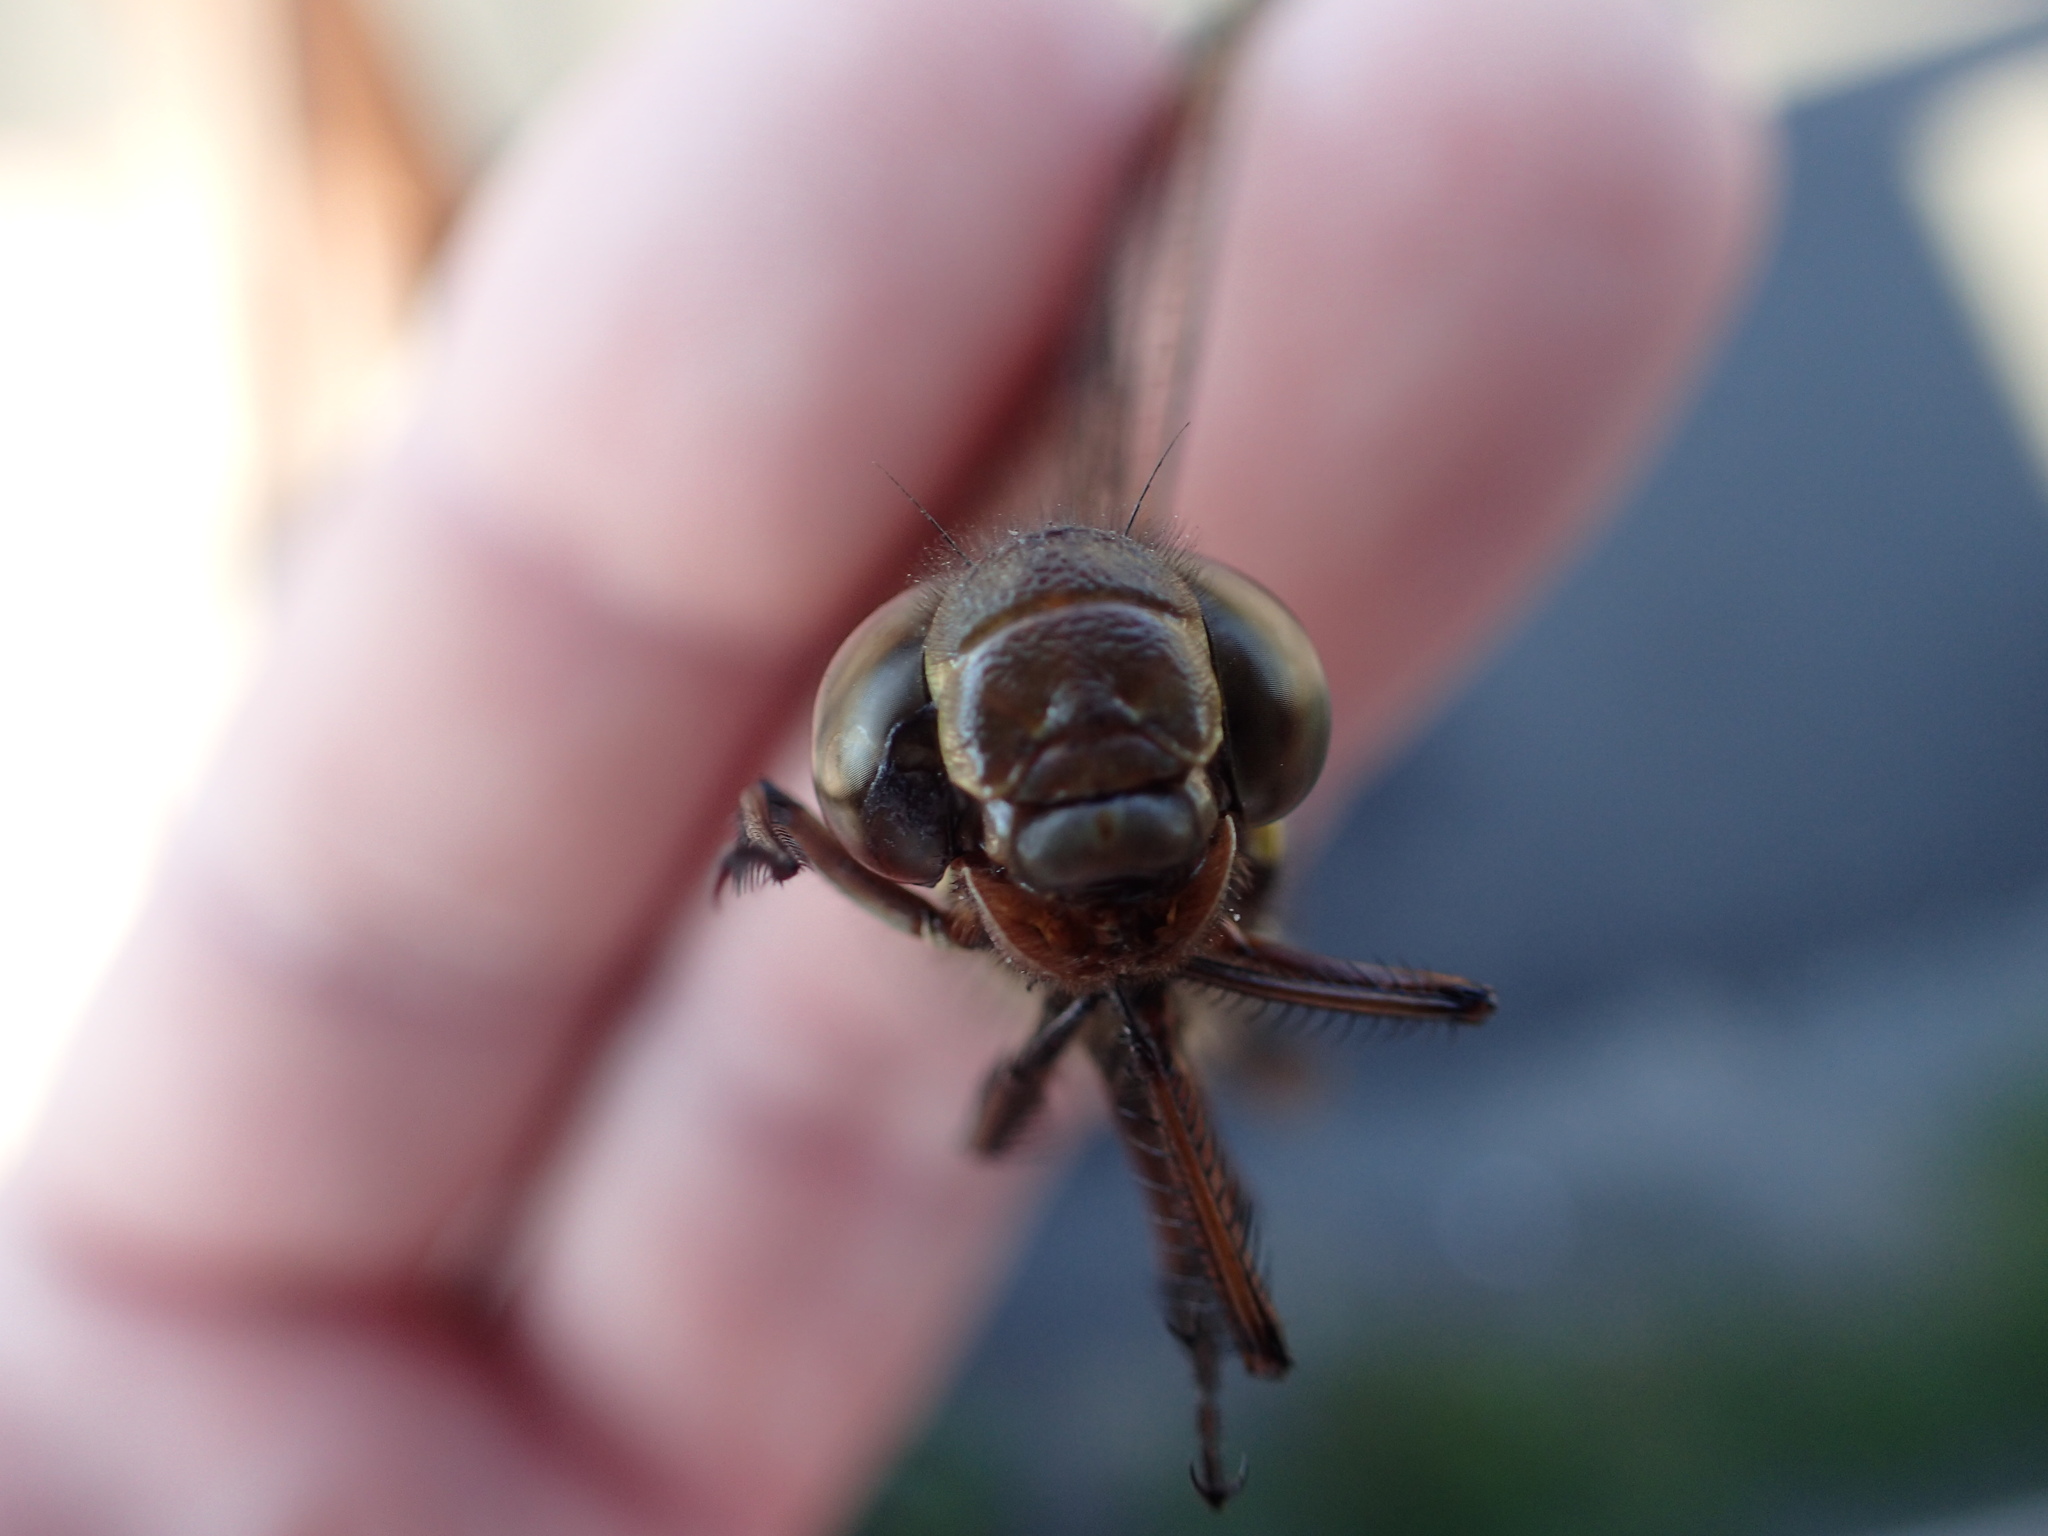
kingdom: Animalia
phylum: Arthropoda
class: Insecta
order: Odonata
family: Aeshnidae
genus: Aeshna
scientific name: Aeshna umbrosa
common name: Shadow darner
